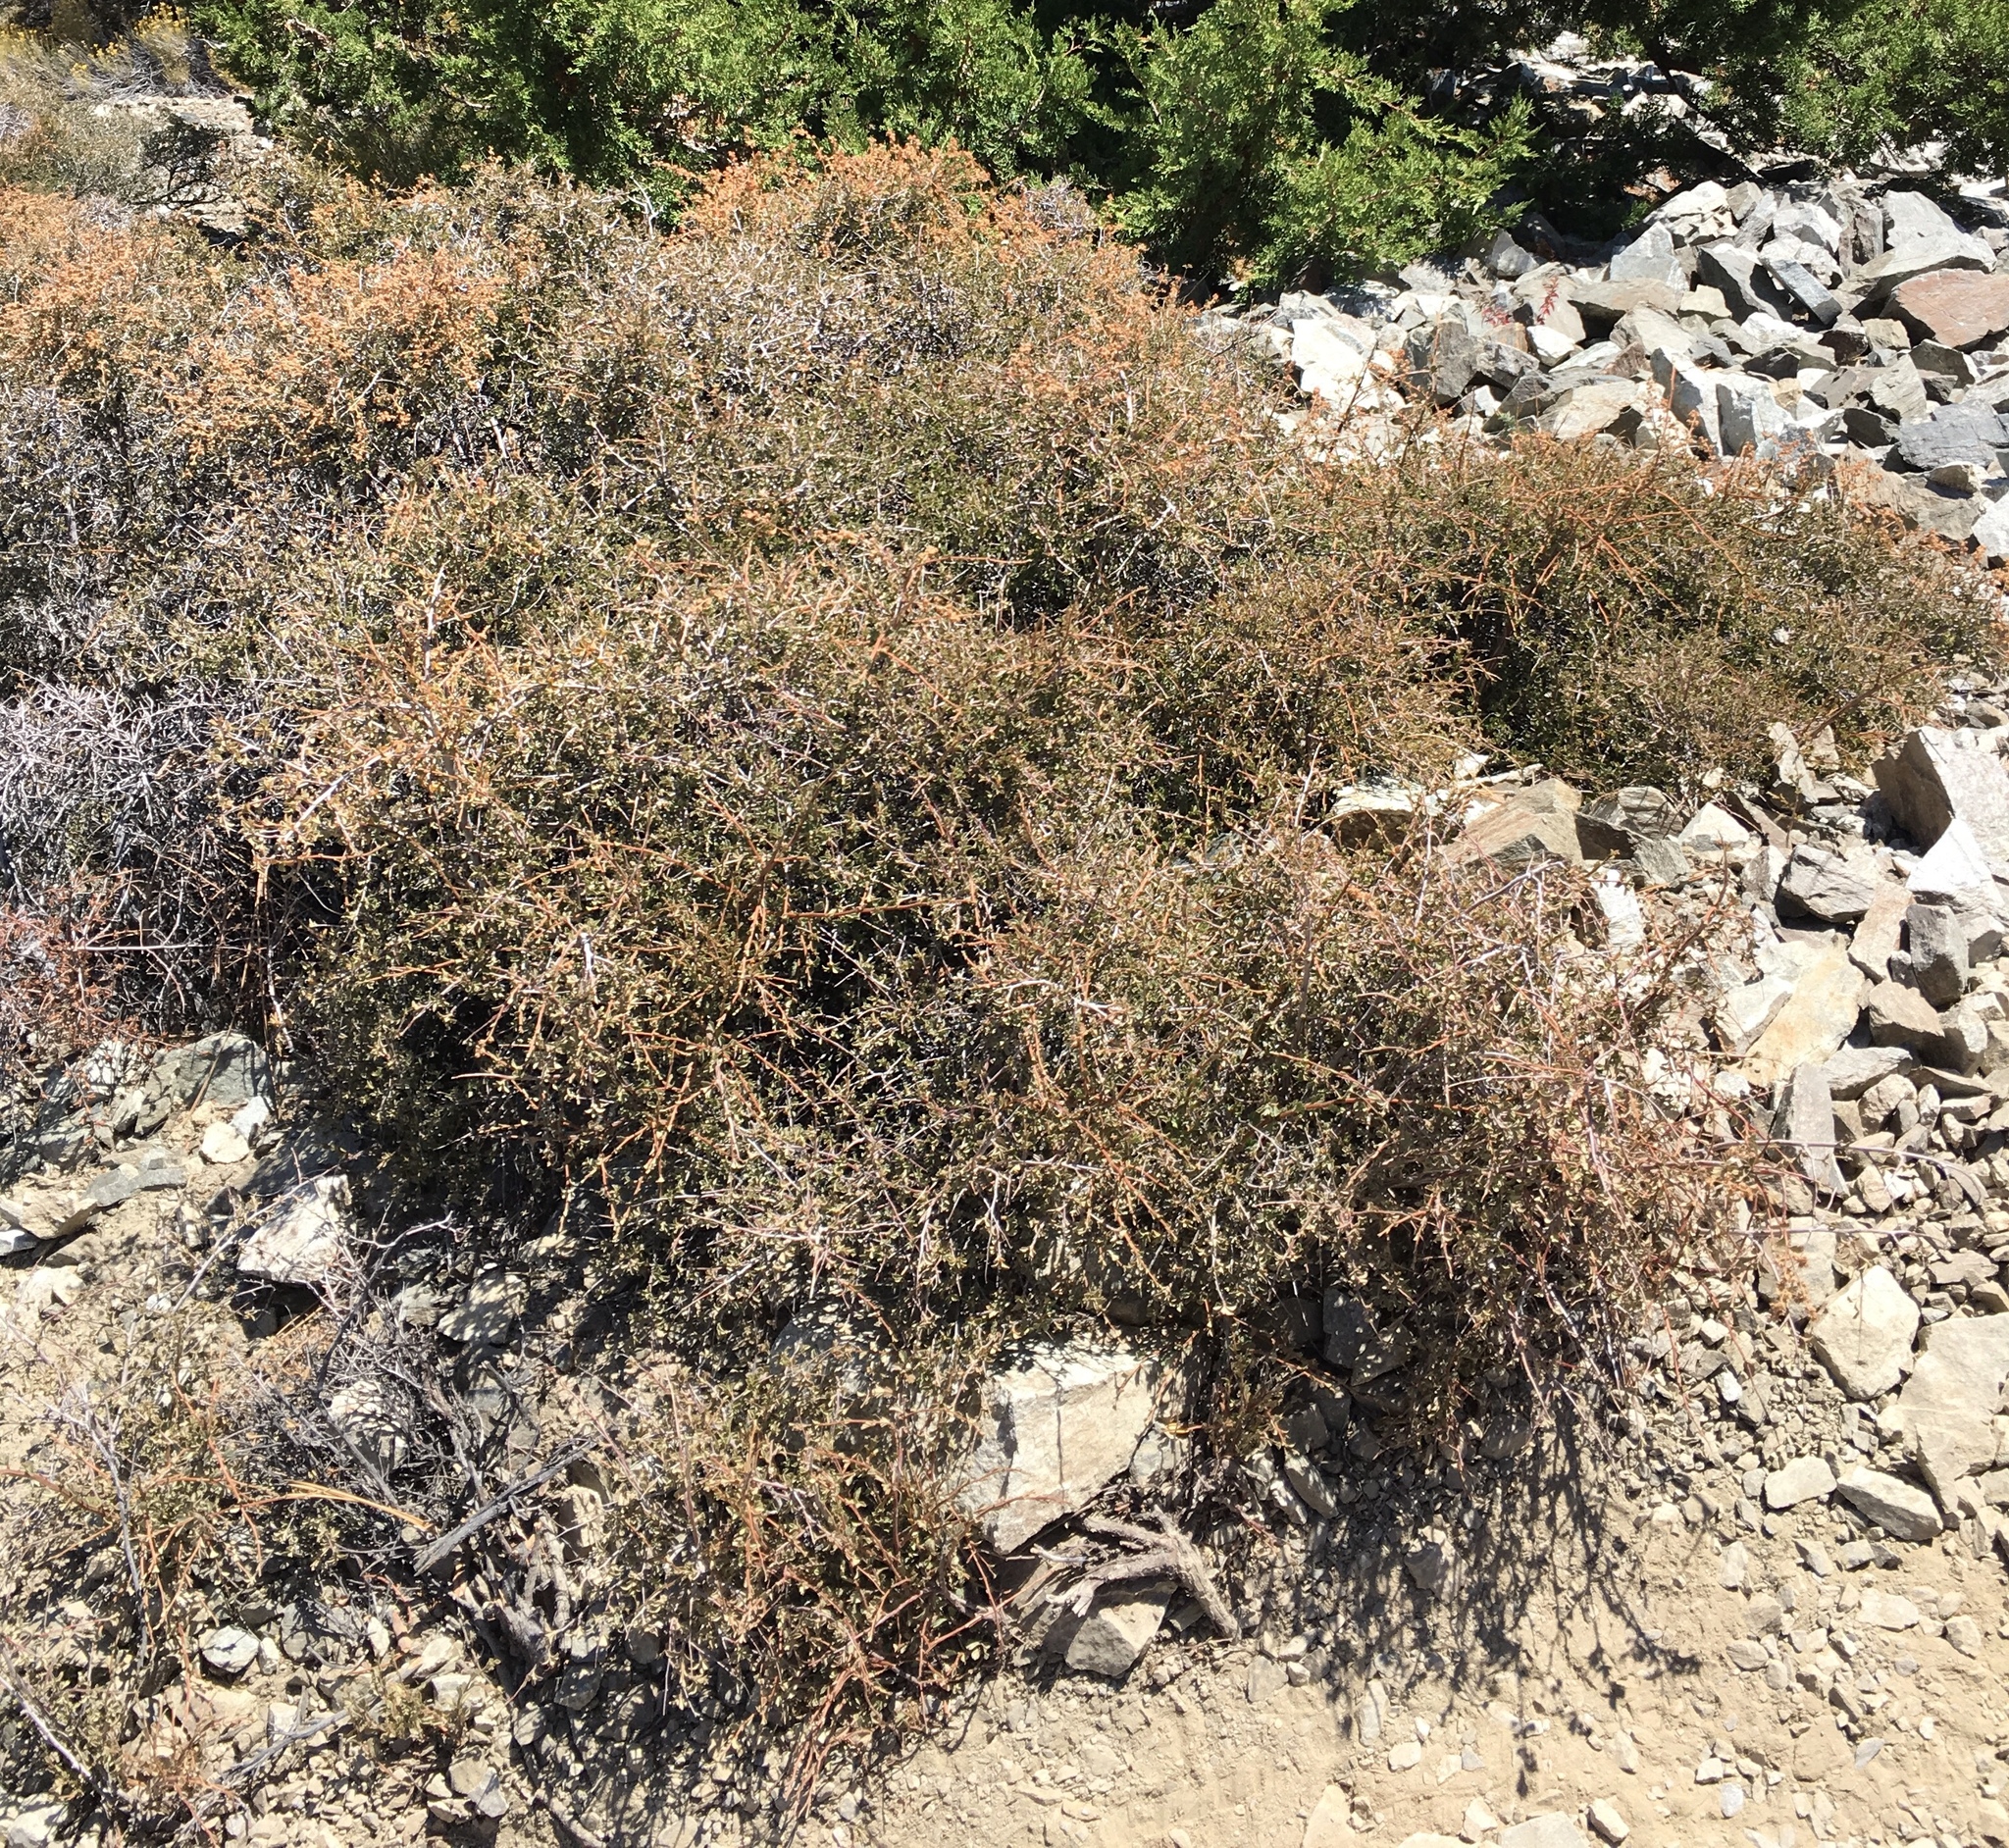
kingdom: Plantae
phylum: Tracheophyta
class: Magnoliopsida
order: Rosales
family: Rosaceae
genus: Holodiscus
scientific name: Holodiscus discolor
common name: Oceanspray
